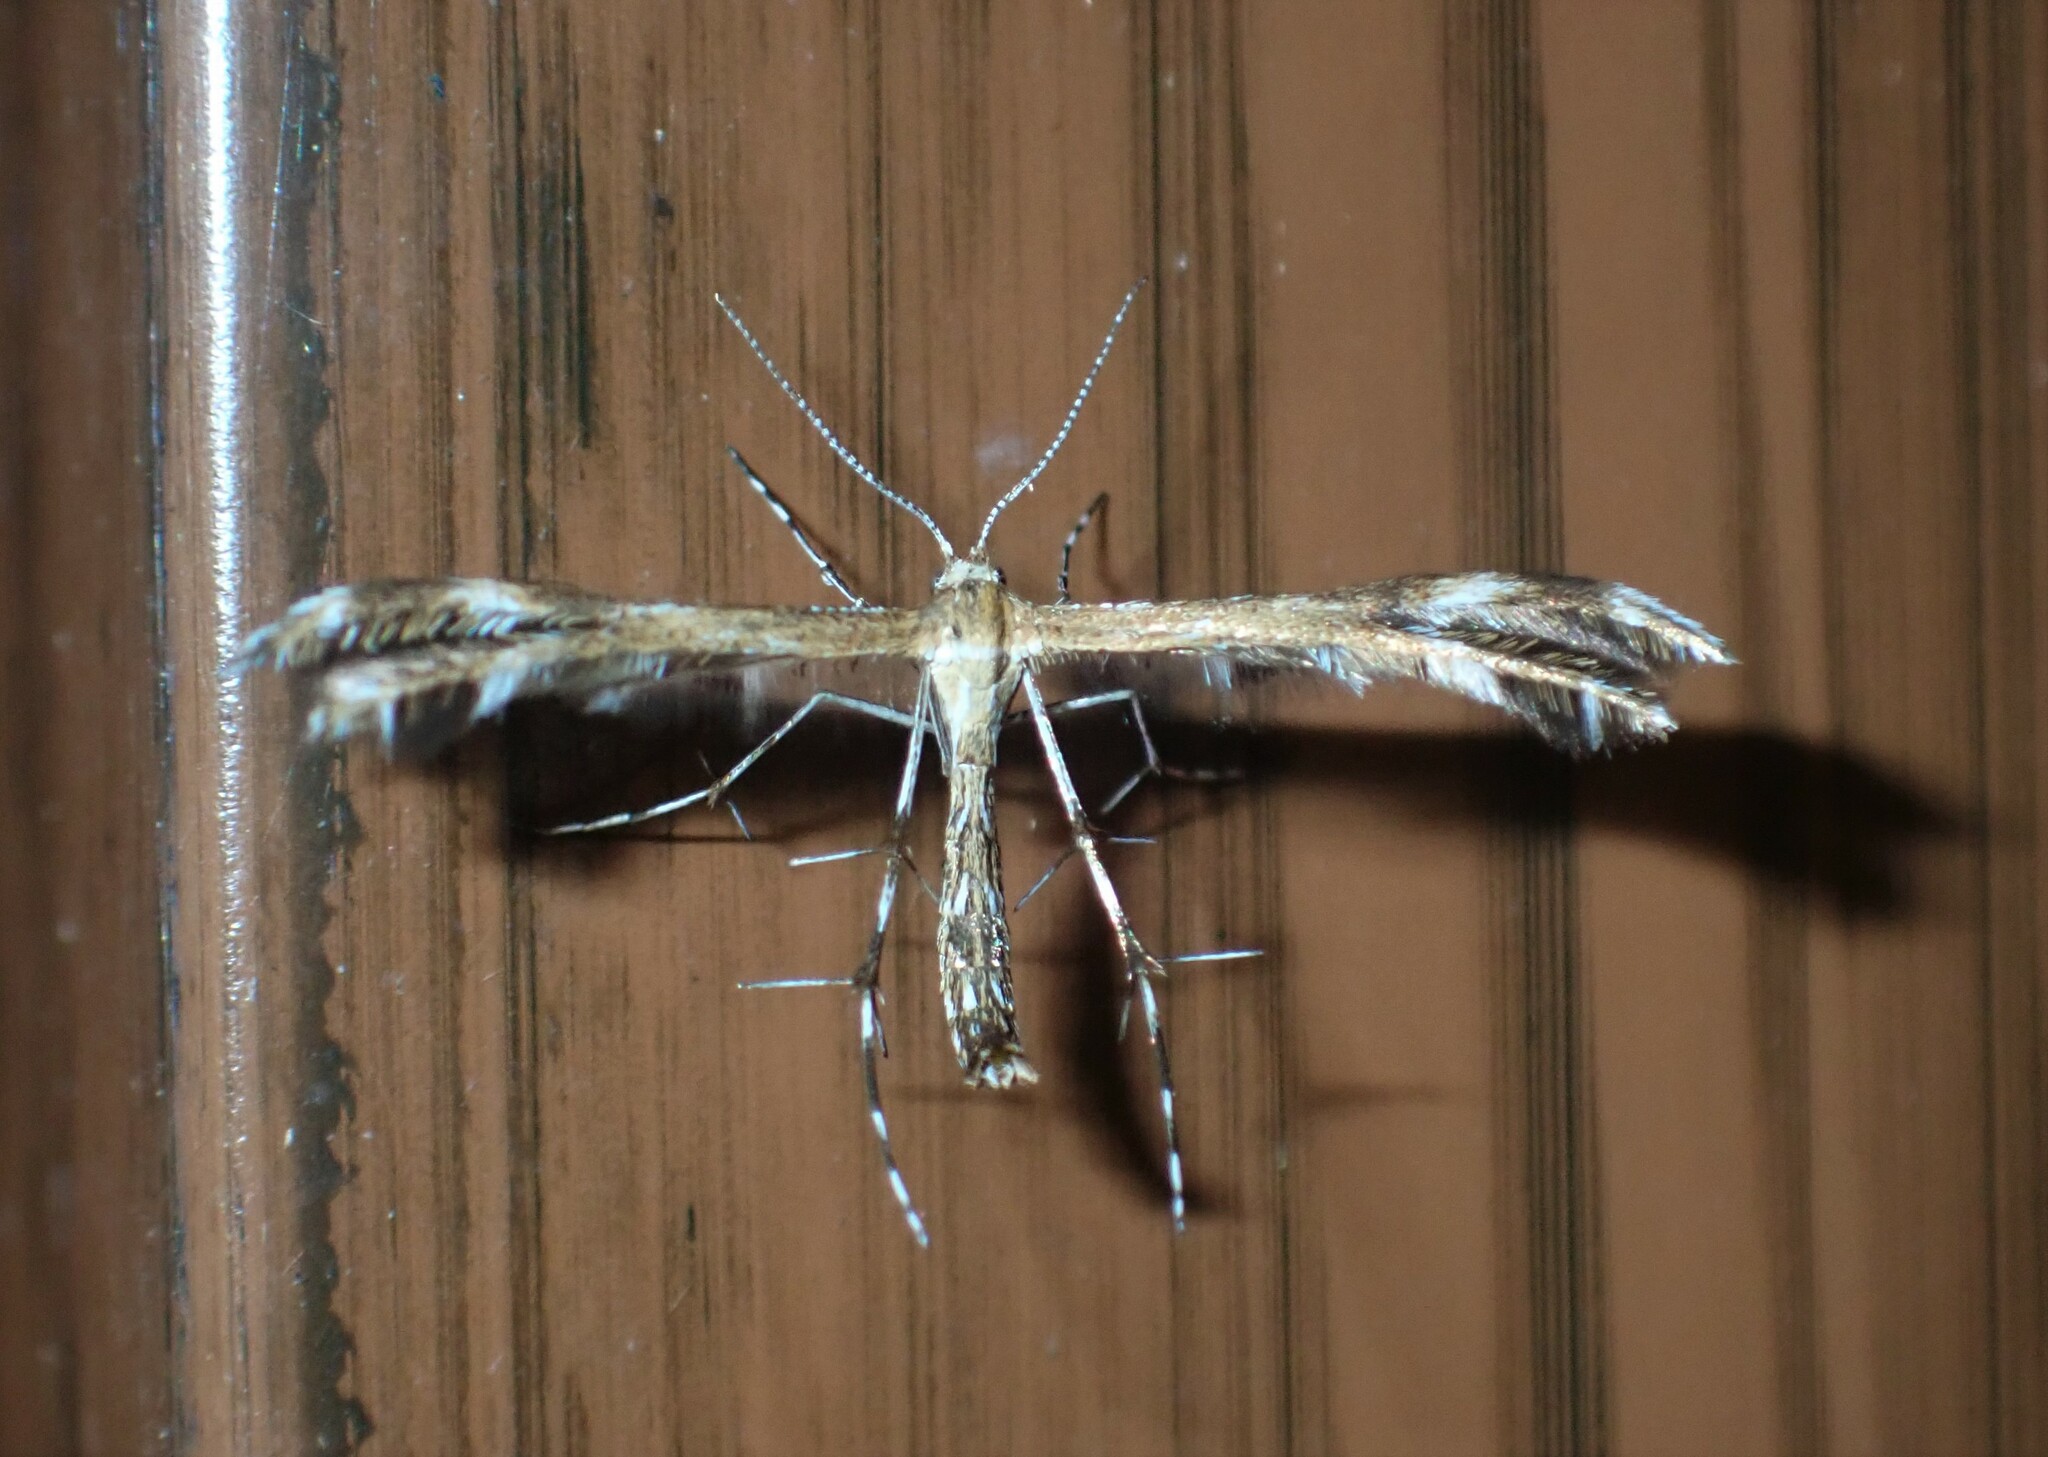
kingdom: Animalia
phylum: Arthropoda
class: Insecta
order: Lepidoptera
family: Pterophoridae
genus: Dejongia
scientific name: Dejongia lobidactylus
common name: Lobed plume moth
